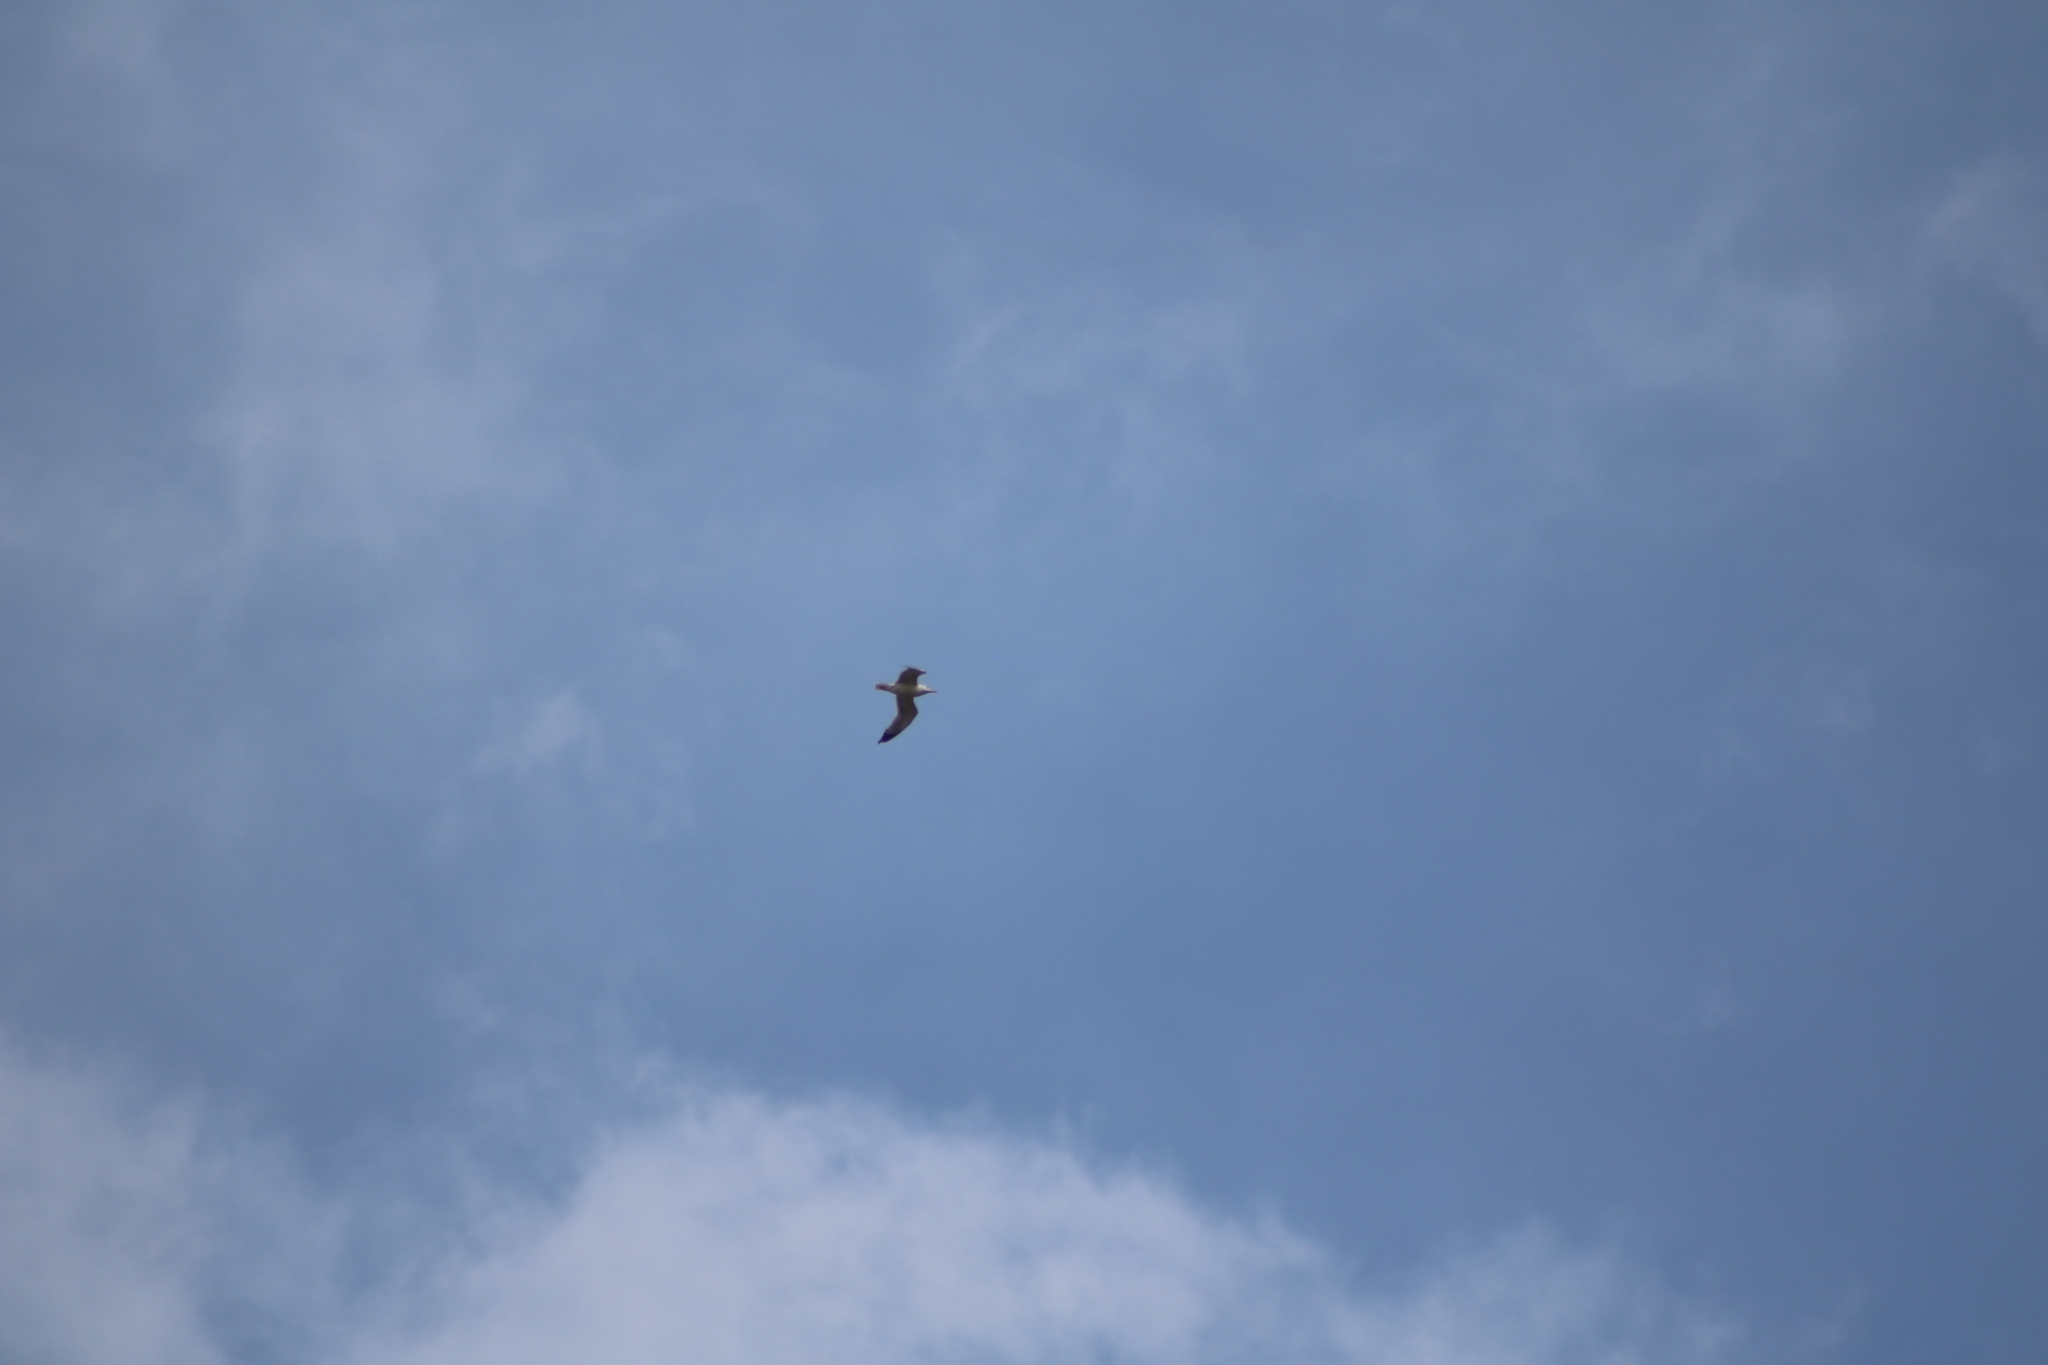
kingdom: Animalia
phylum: Chordata
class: Aves
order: Charadriiformes
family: Laridae
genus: Larus
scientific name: Larus michahellis
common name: Yellow-legged gull
